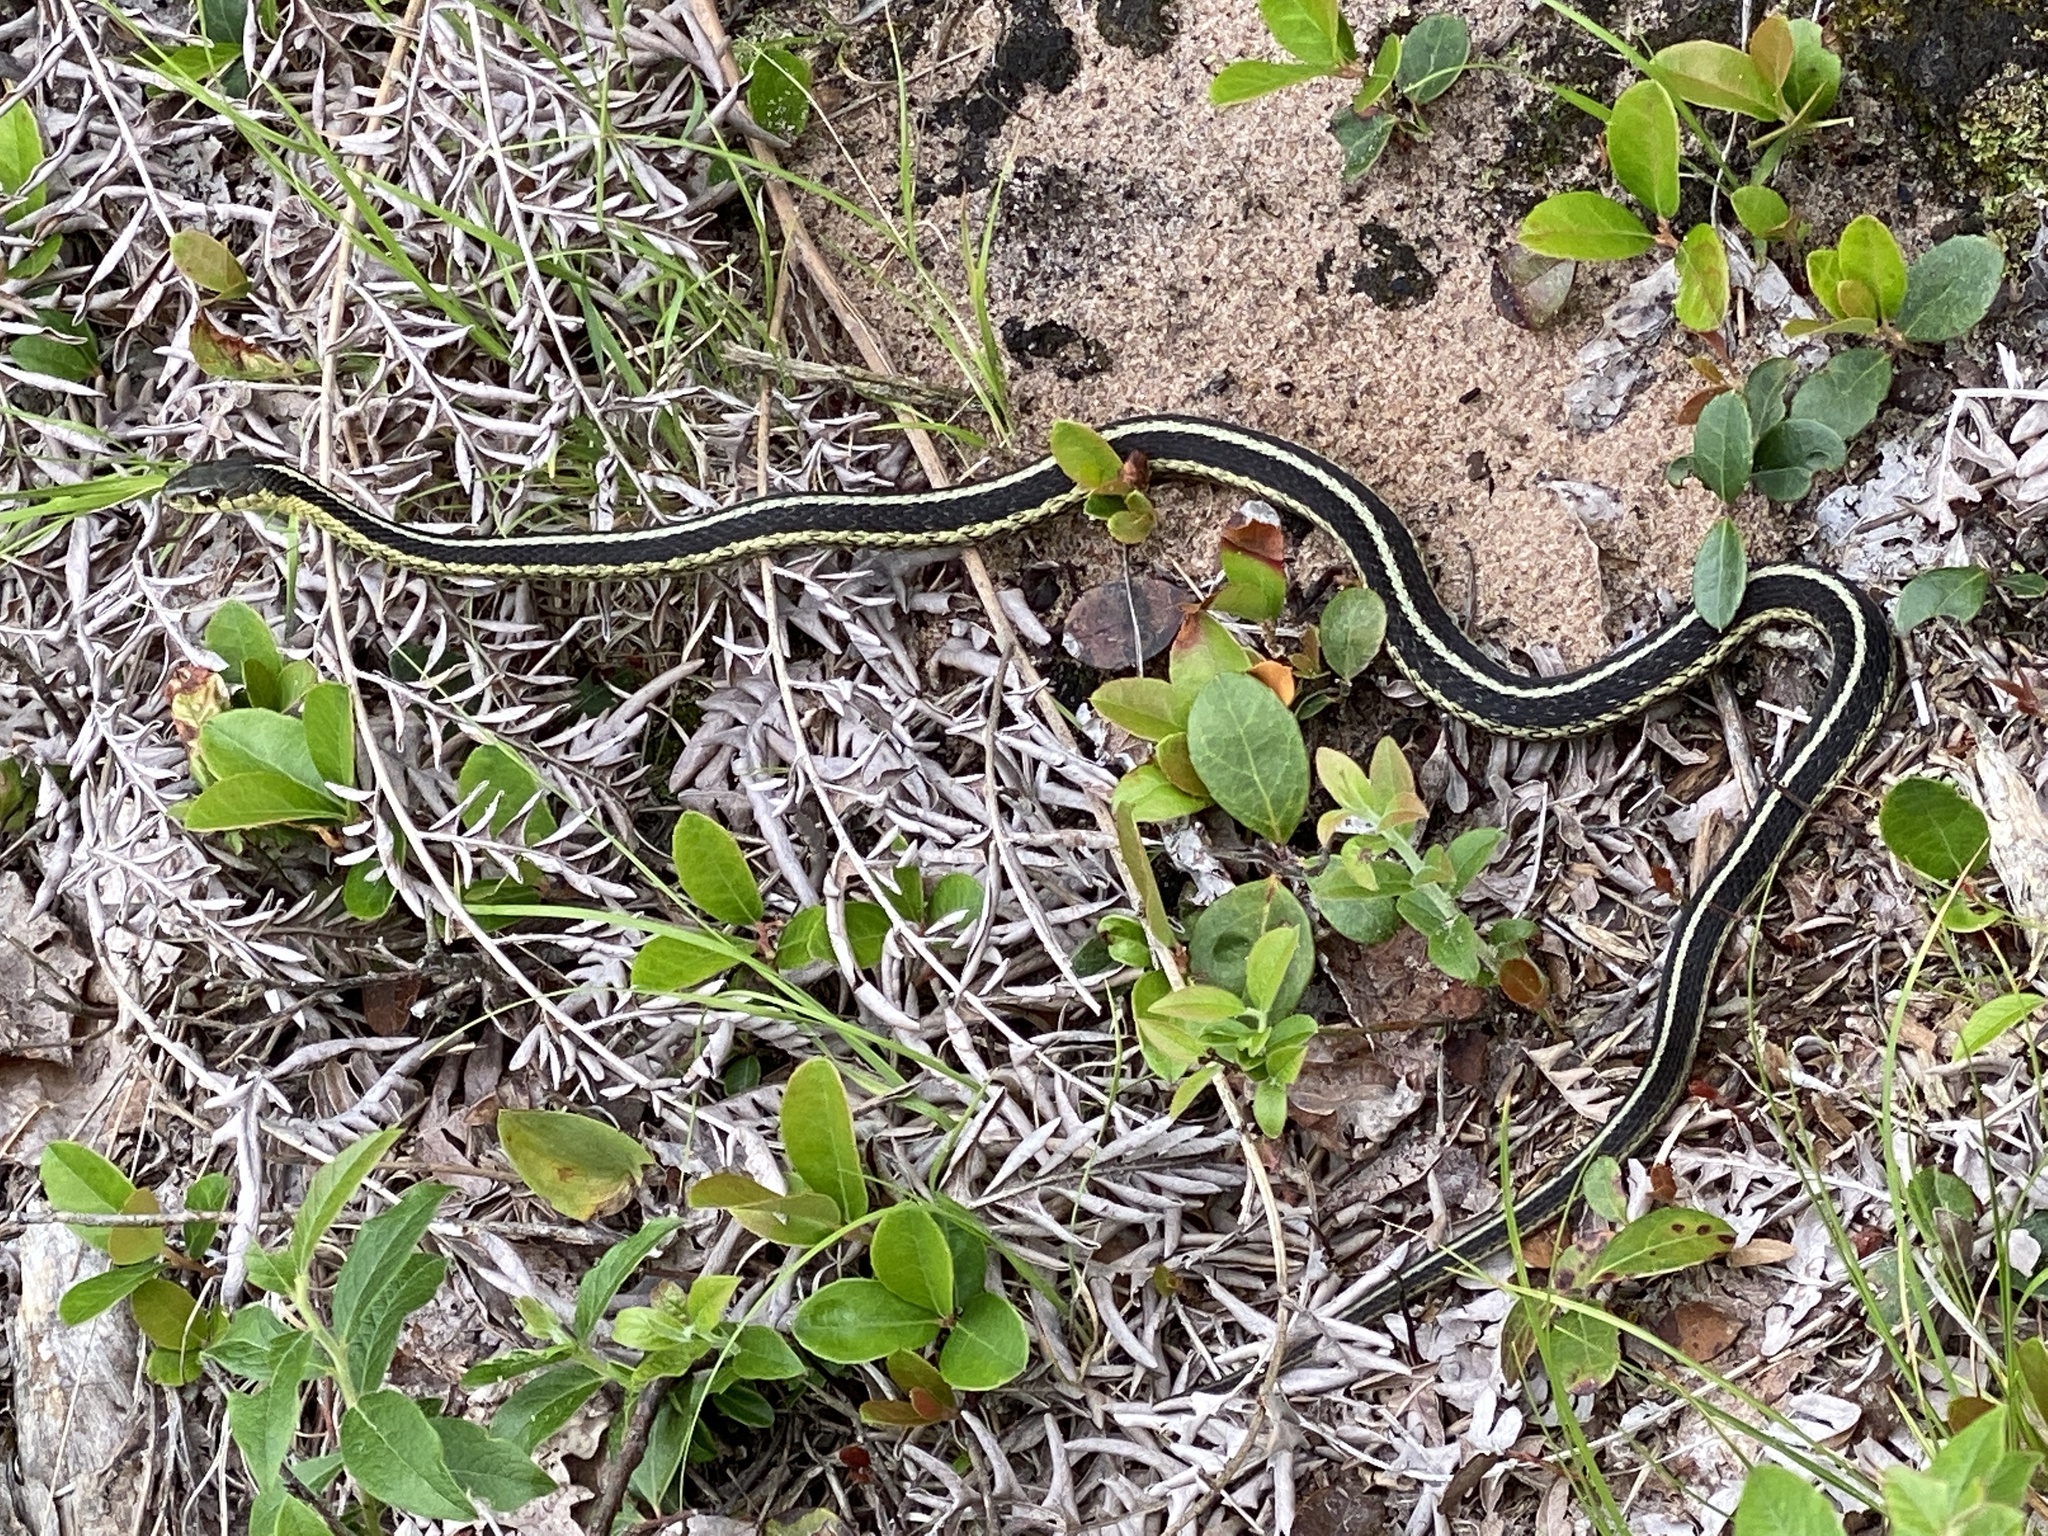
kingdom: Animalia
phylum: Chordata
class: Squamata
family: Colubridae
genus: Thamnophis
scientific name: Thamnophis sirtalis
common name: Common garter snake
